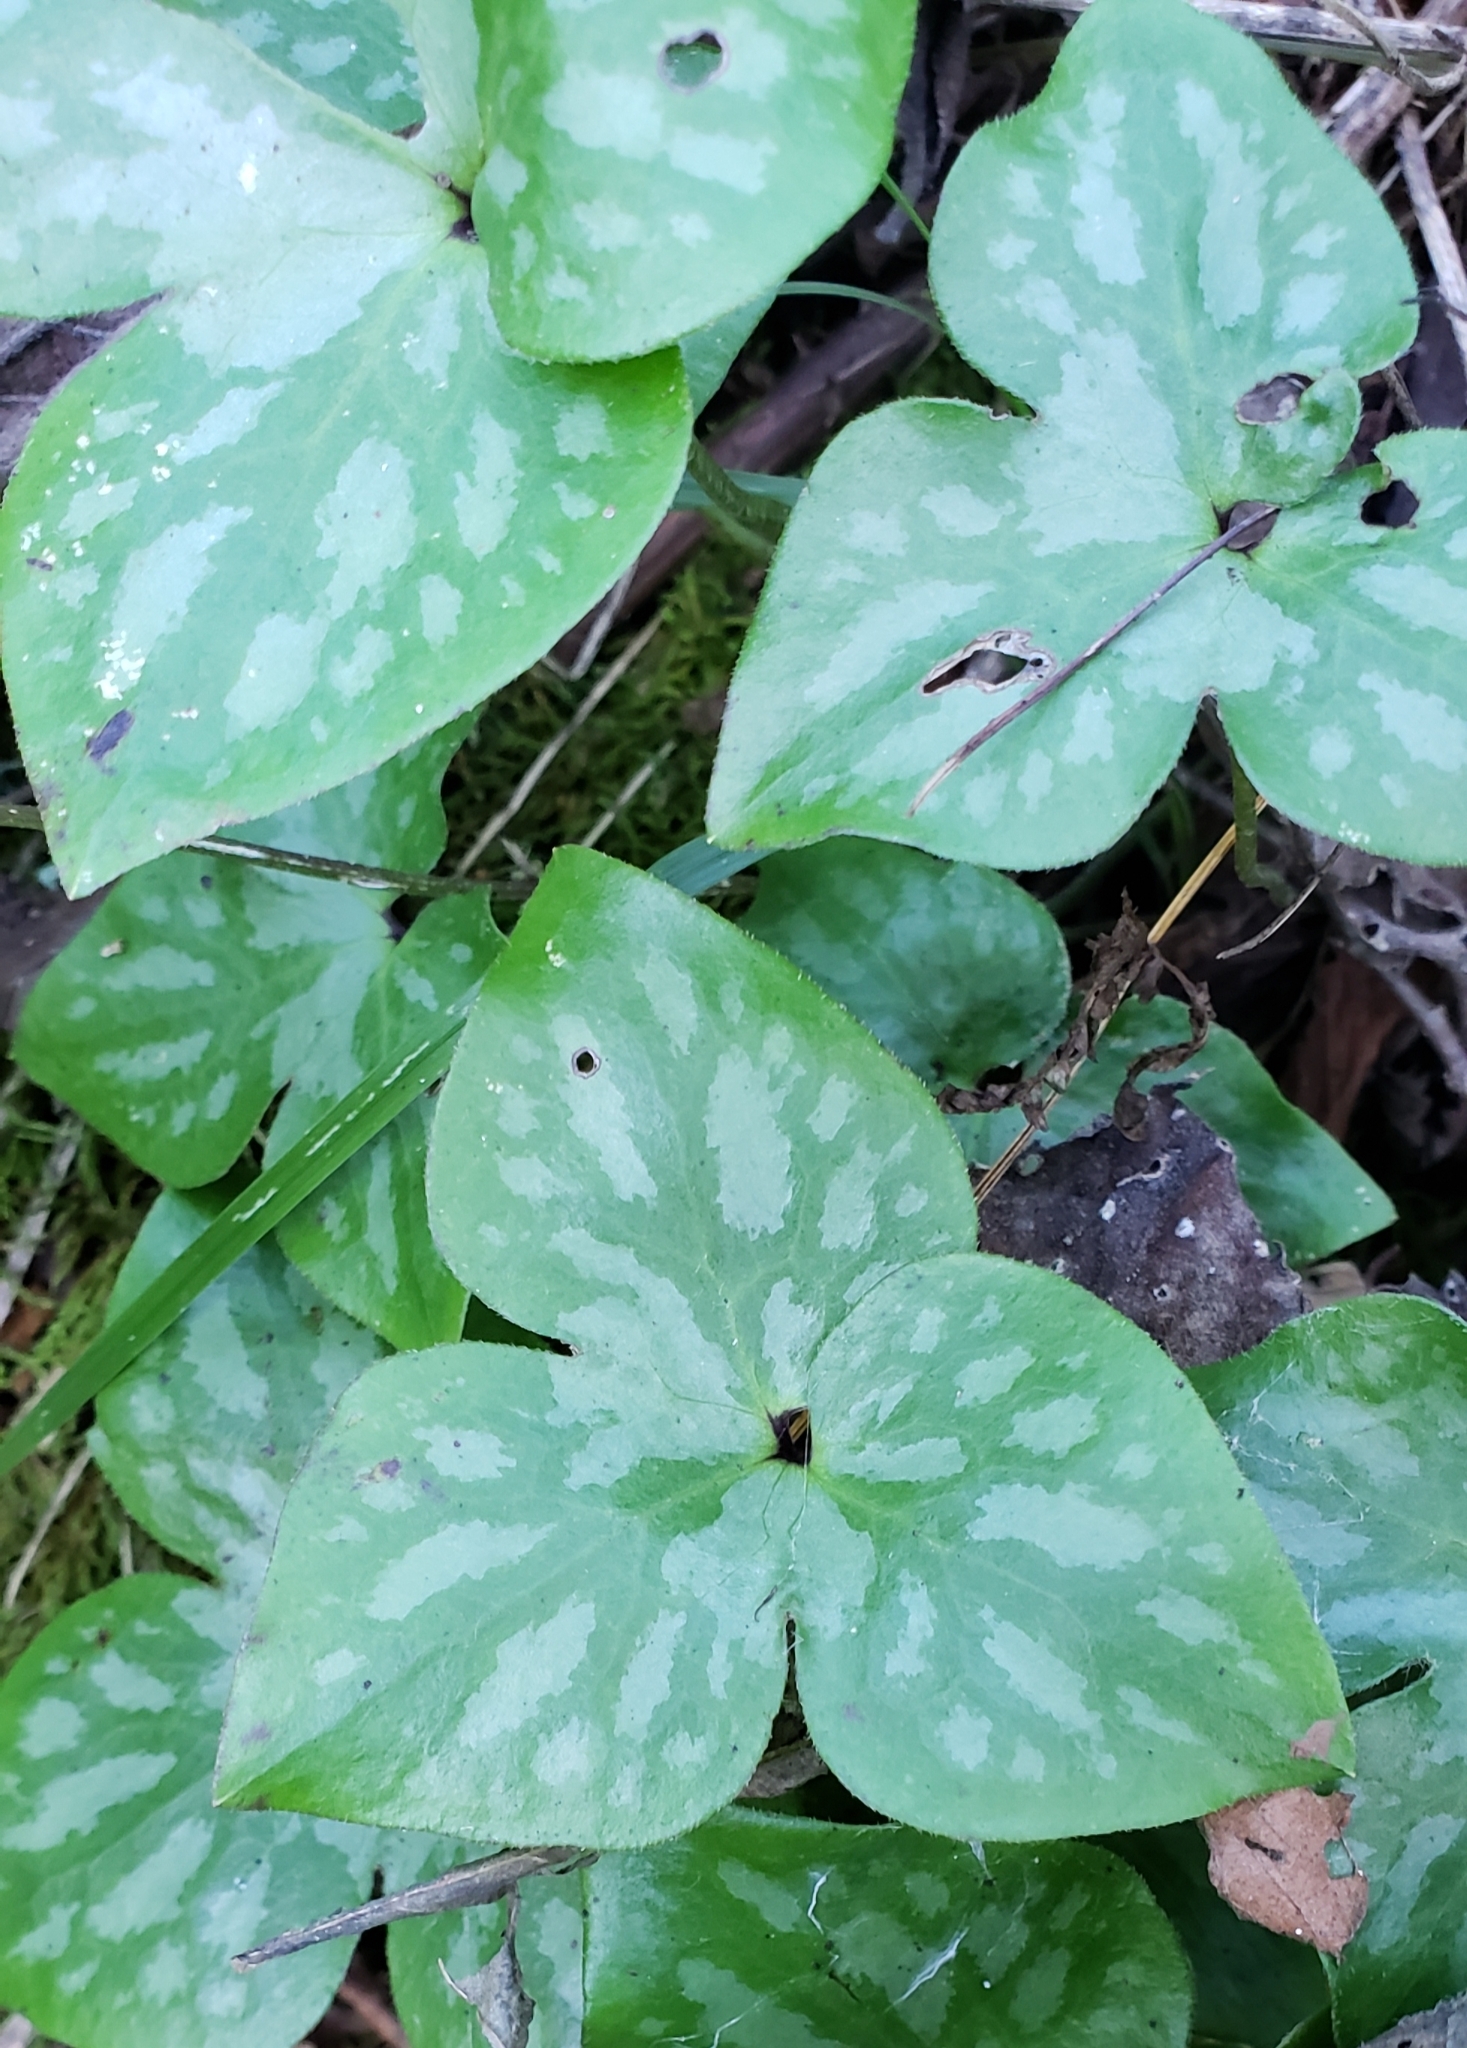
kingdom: Plantae
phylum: Tracheophyta
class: Magnoliopsida
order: Ranunculales
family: Ranunculaceae
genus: Hepatica
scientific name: Hepatica acutiloba
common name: Sharp-lobed hepatica
